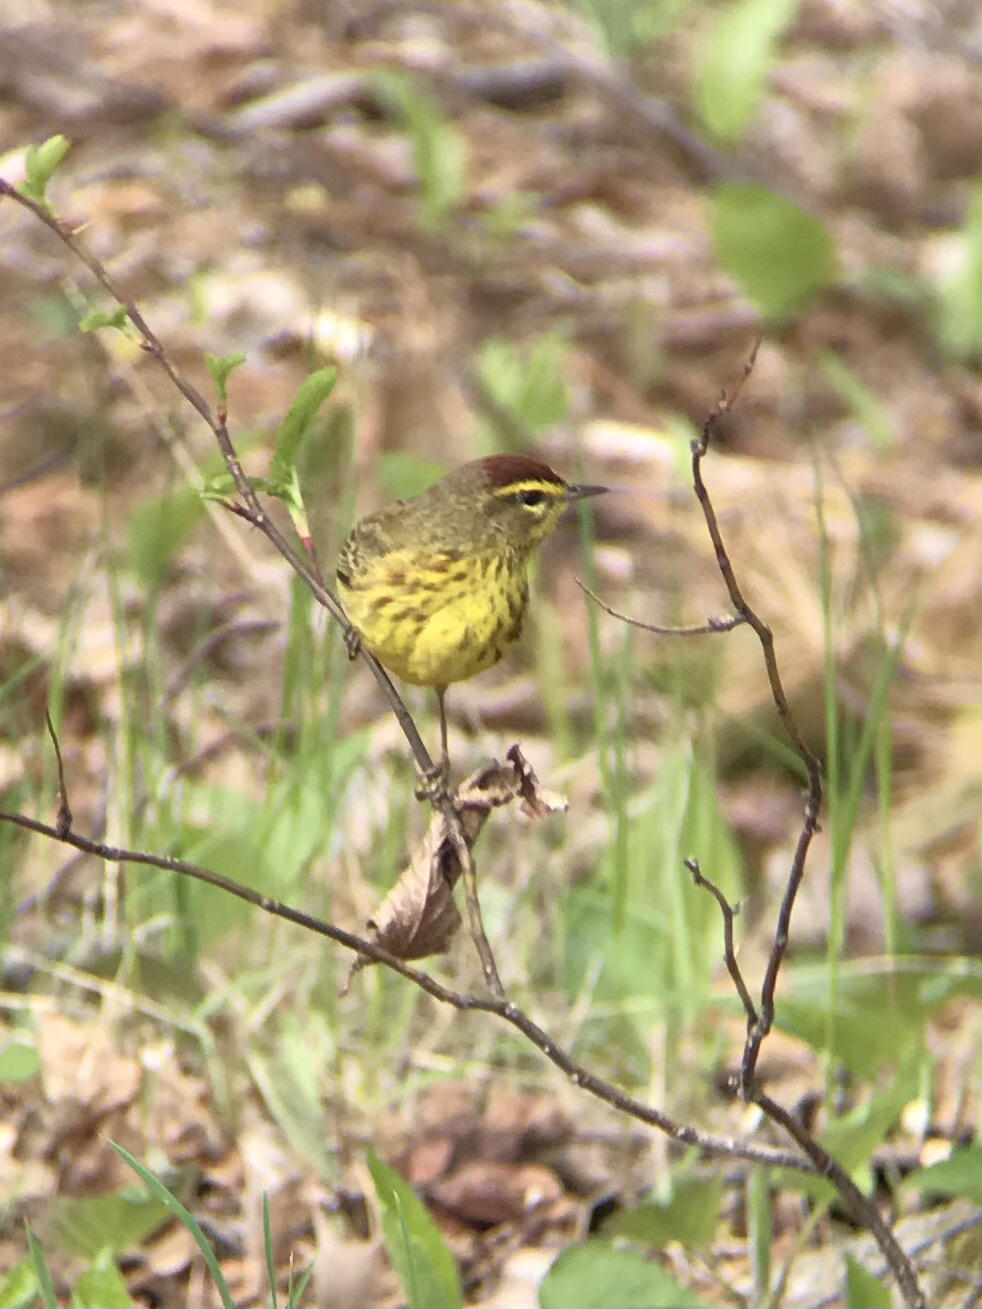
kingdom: Animalia
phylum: Chordata
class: Aves
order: Passeriformes
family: Parulidae
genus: Setophaga
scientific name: Setophaga palmarum
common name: Palm warbler
